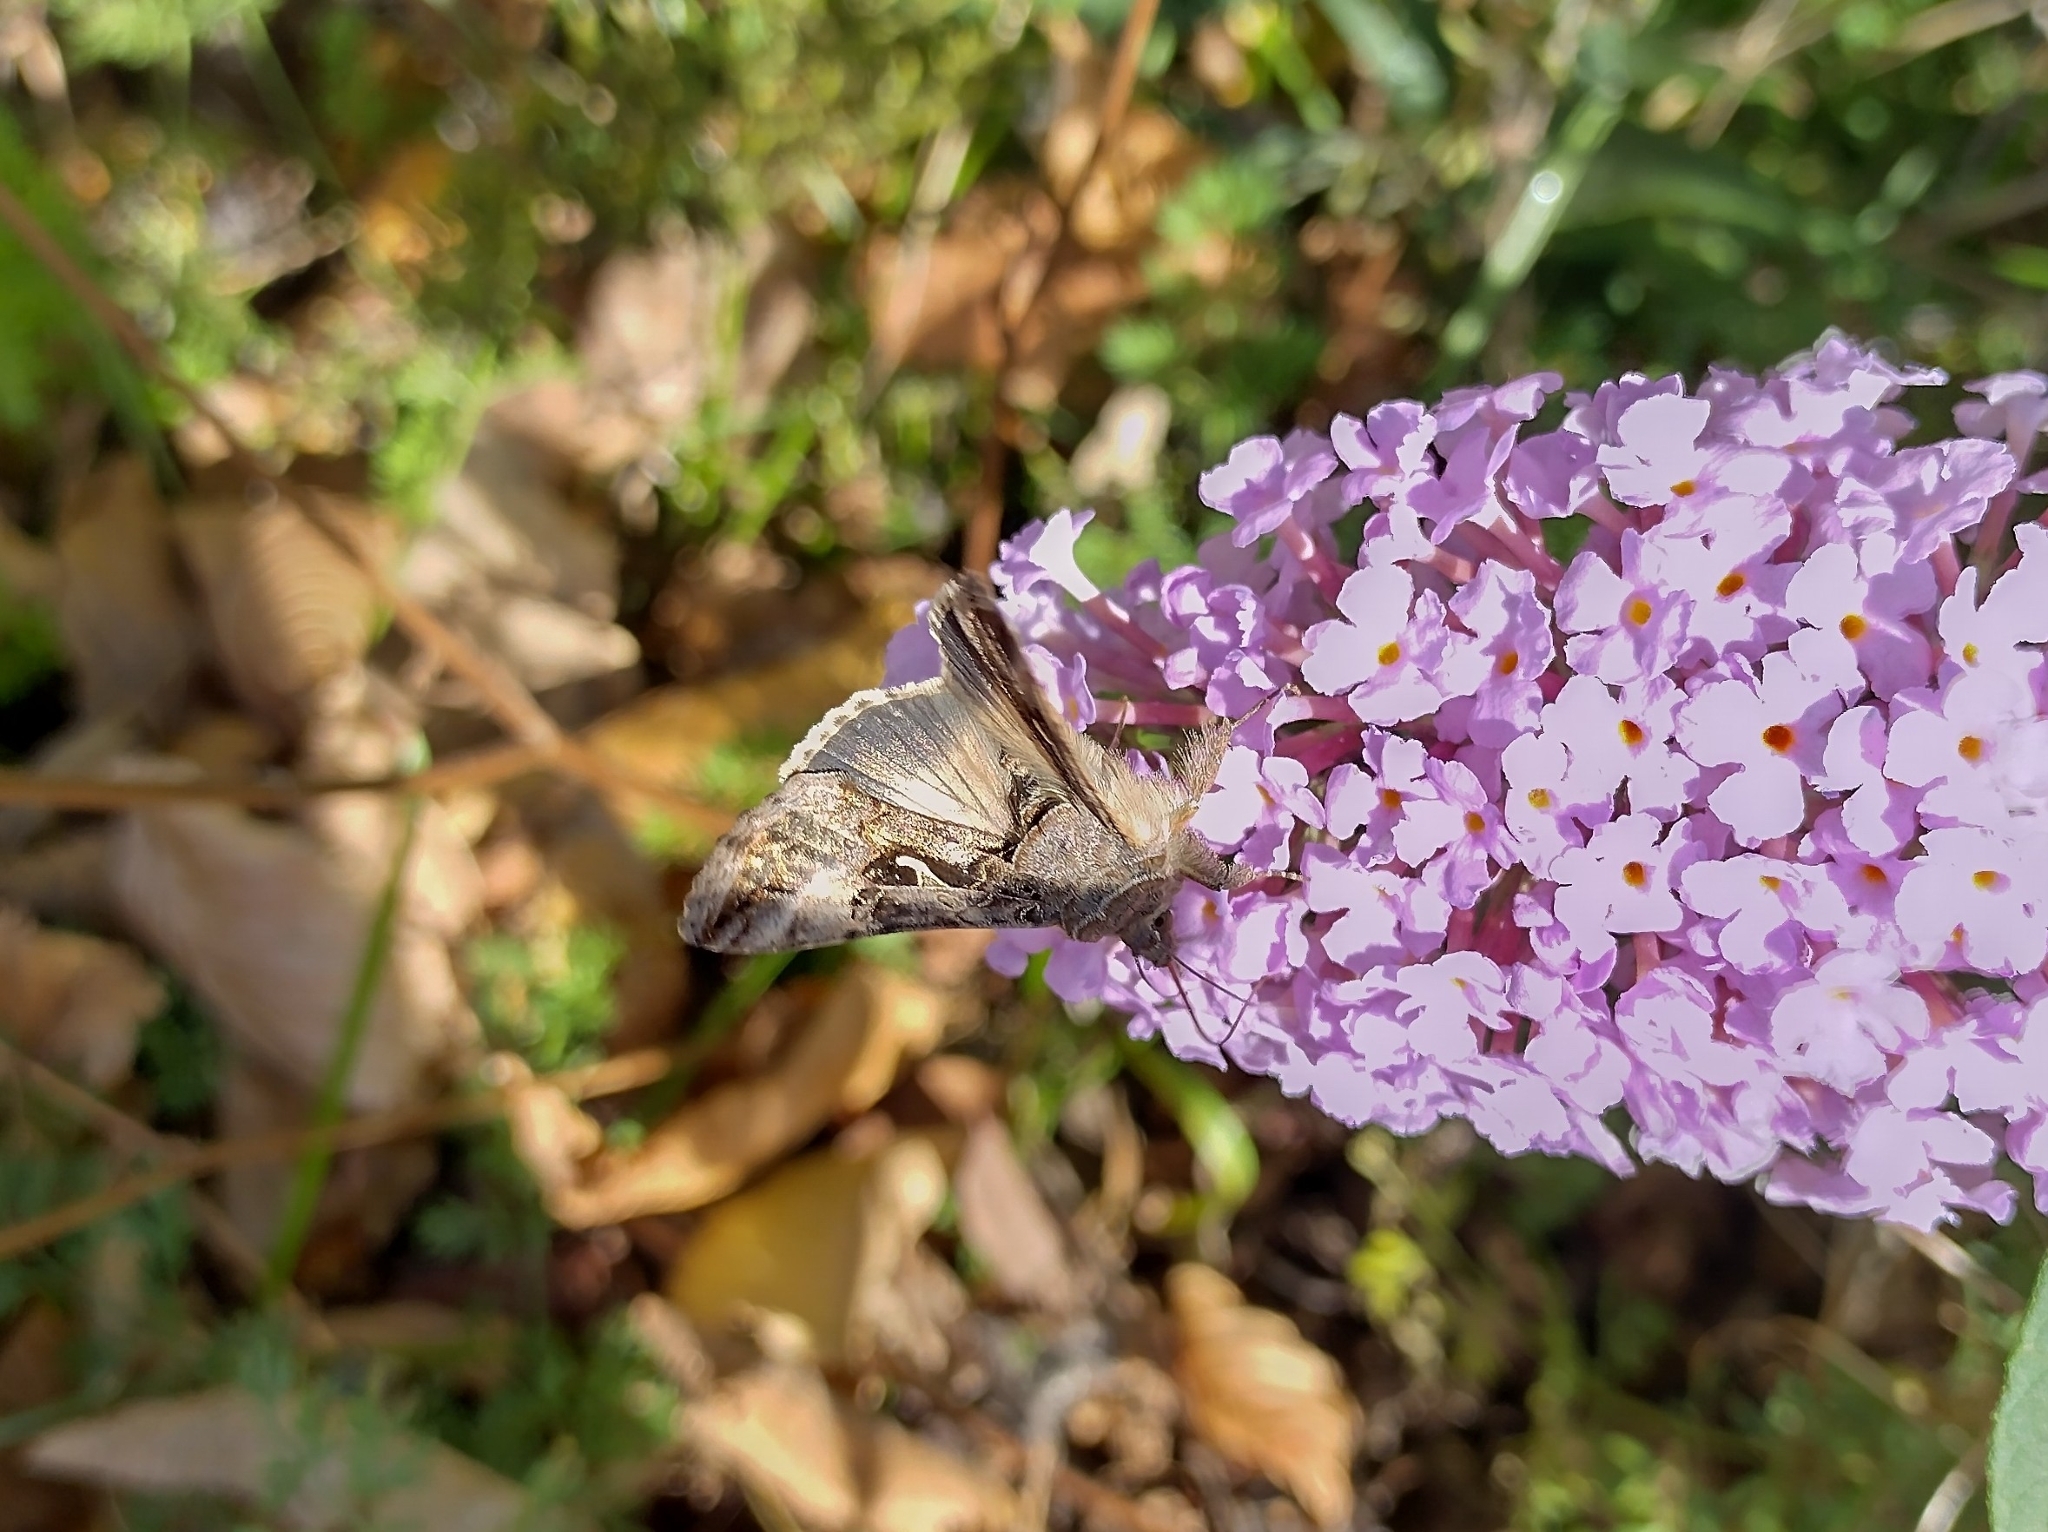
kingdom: Animalia
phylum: Arthropoda
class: Insecta
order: Lepidoptera
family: Noctuidae
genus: Autographa
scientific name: Autographa gamma
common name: Silver y
